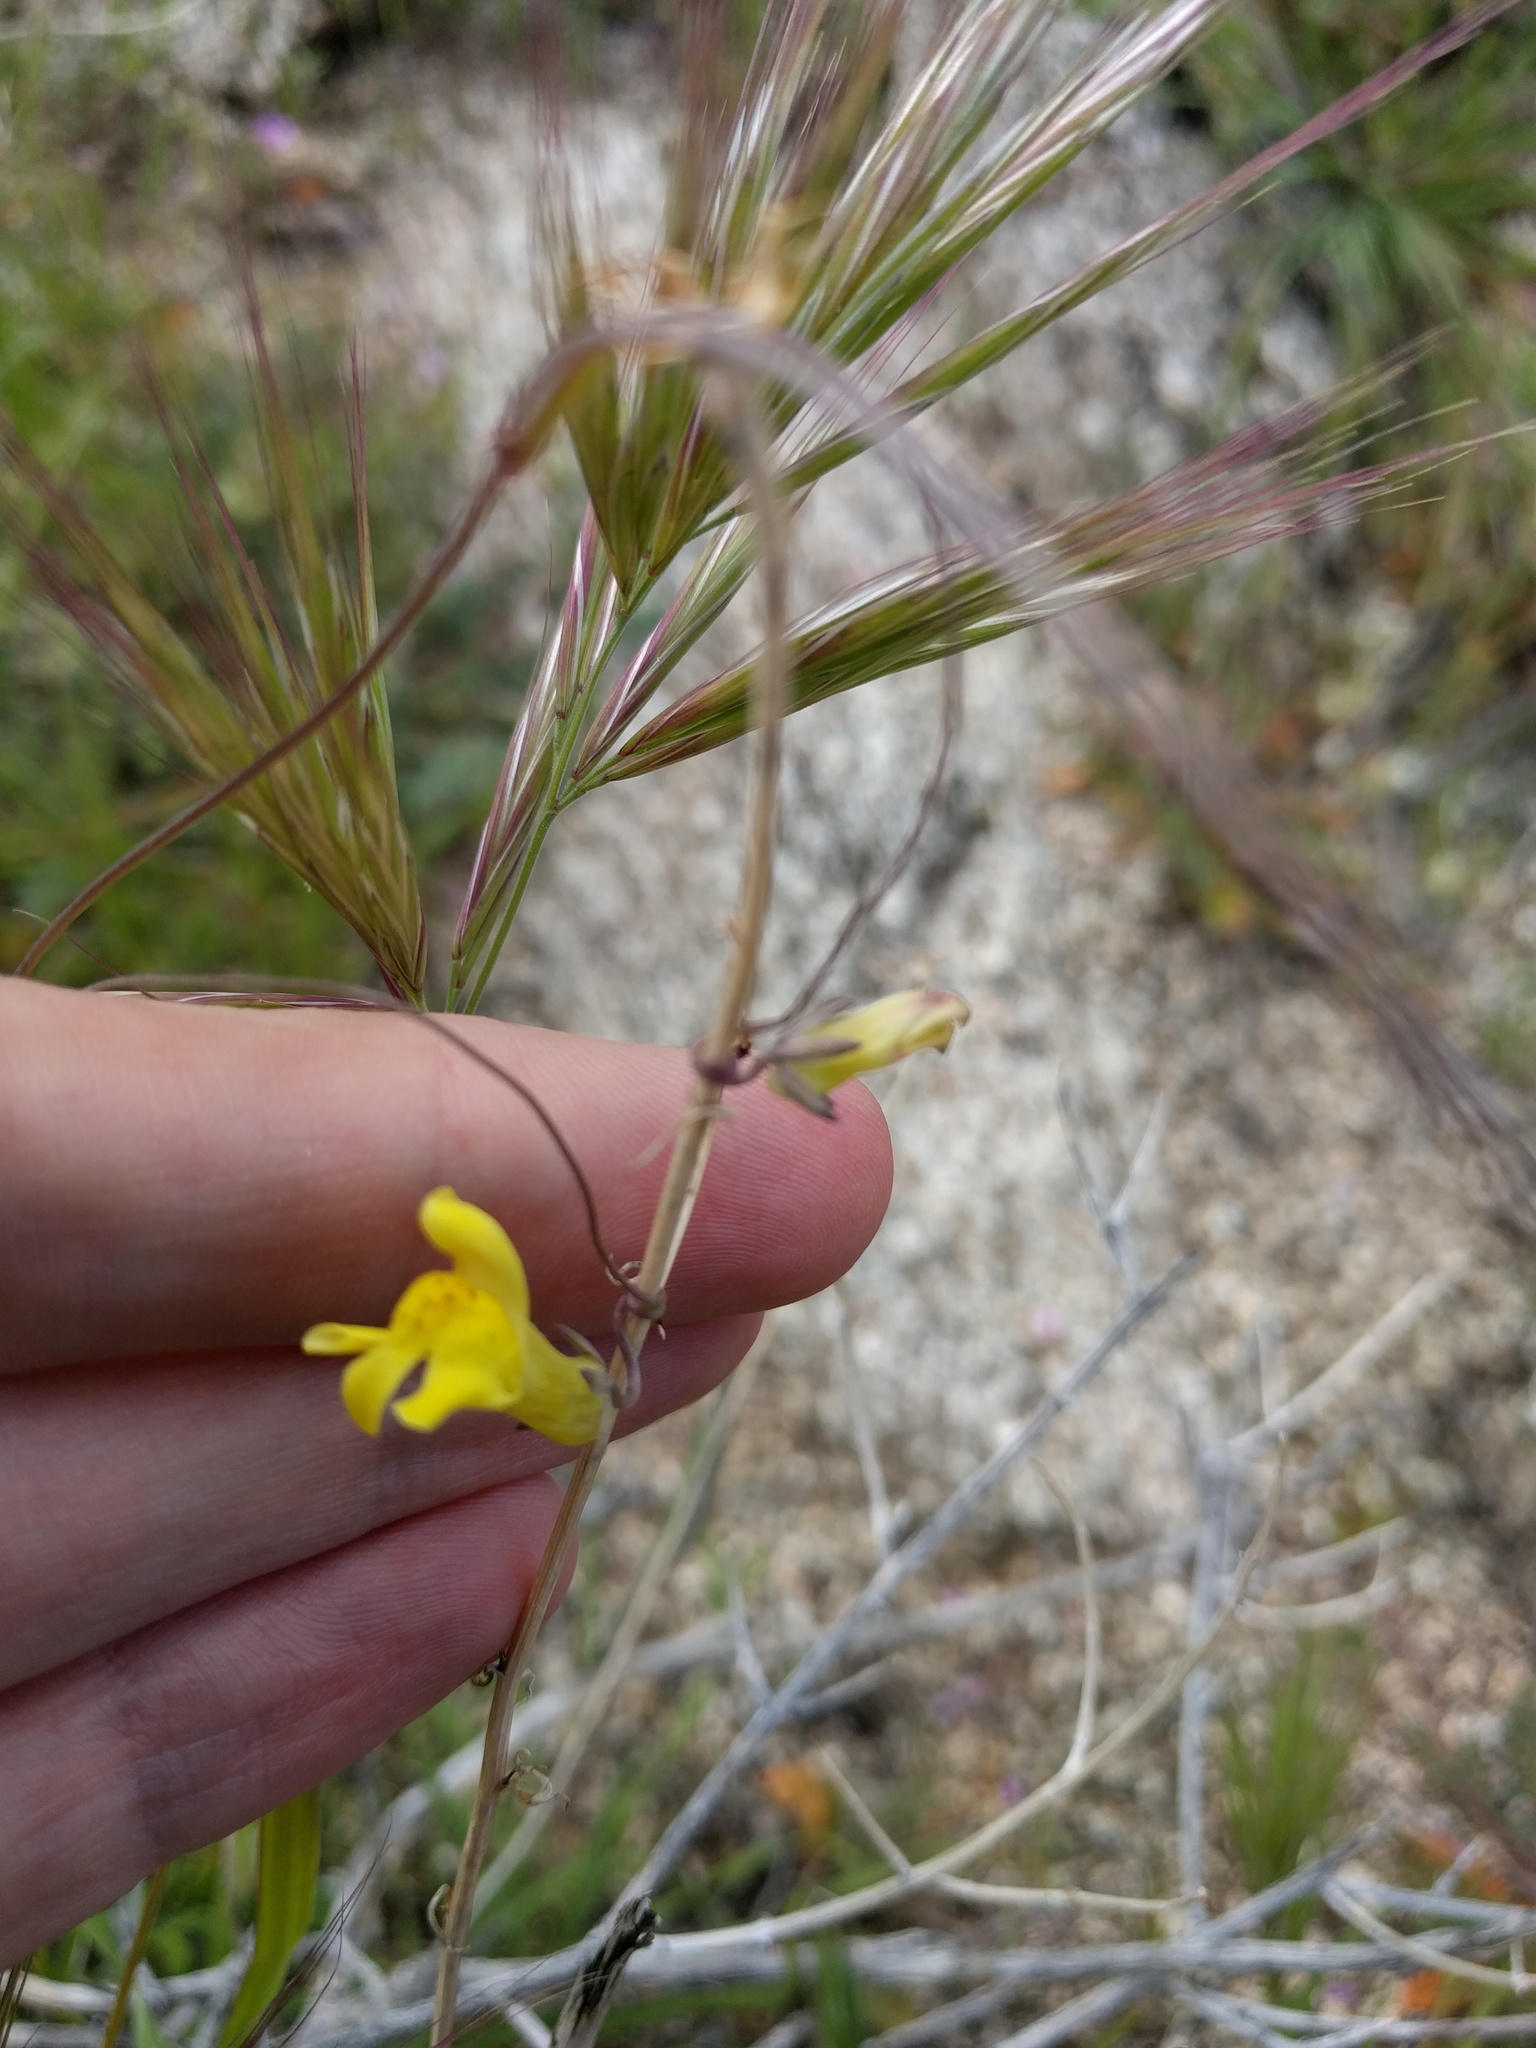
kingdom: Plantae
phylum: Tracheophyta
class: Magnoliopsida
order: Lamiales
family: Plantaginaceae
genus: Neogaerrhinum
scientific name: Neogaerrhinum filipes
